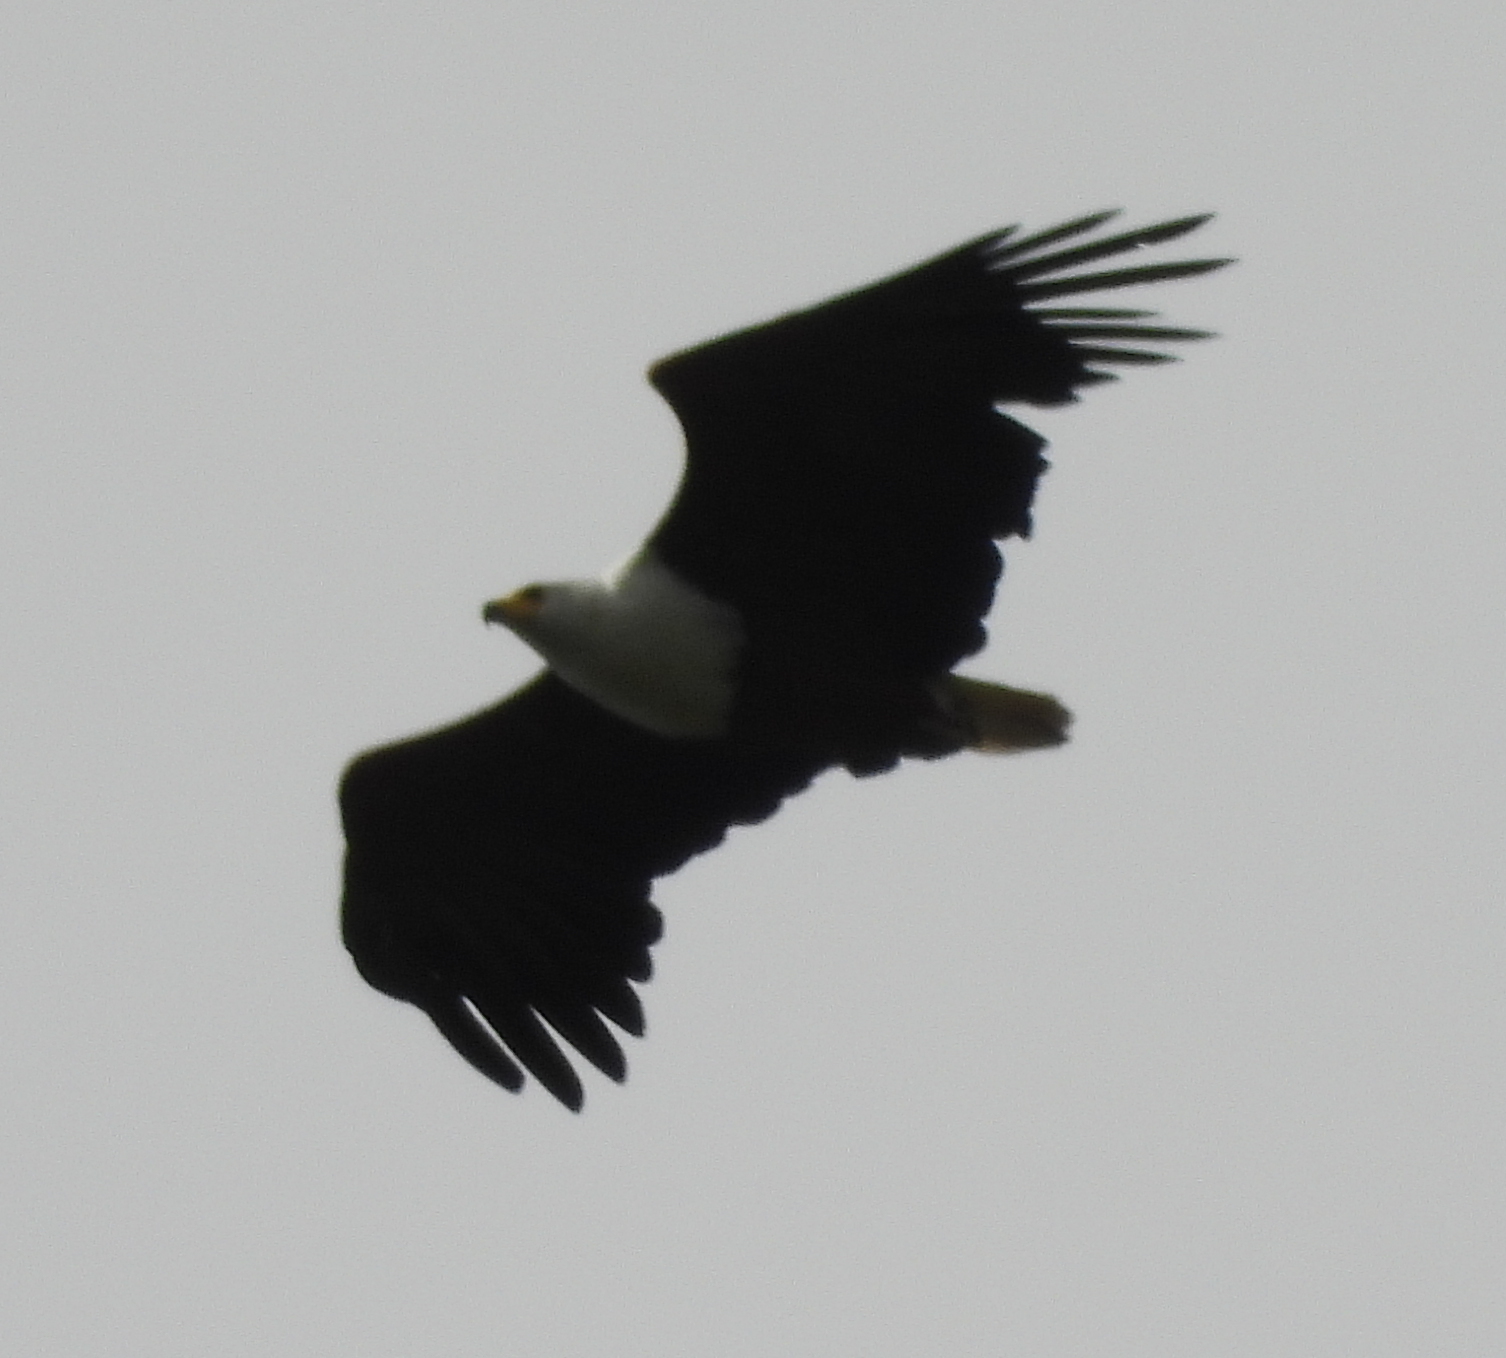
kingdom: Animalia
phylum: Chordata
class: Aves
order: Accipitriformes
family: Accipitridae
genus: Haliaeetus
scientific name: Haliaeetus vocifer
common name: African fish eagle
